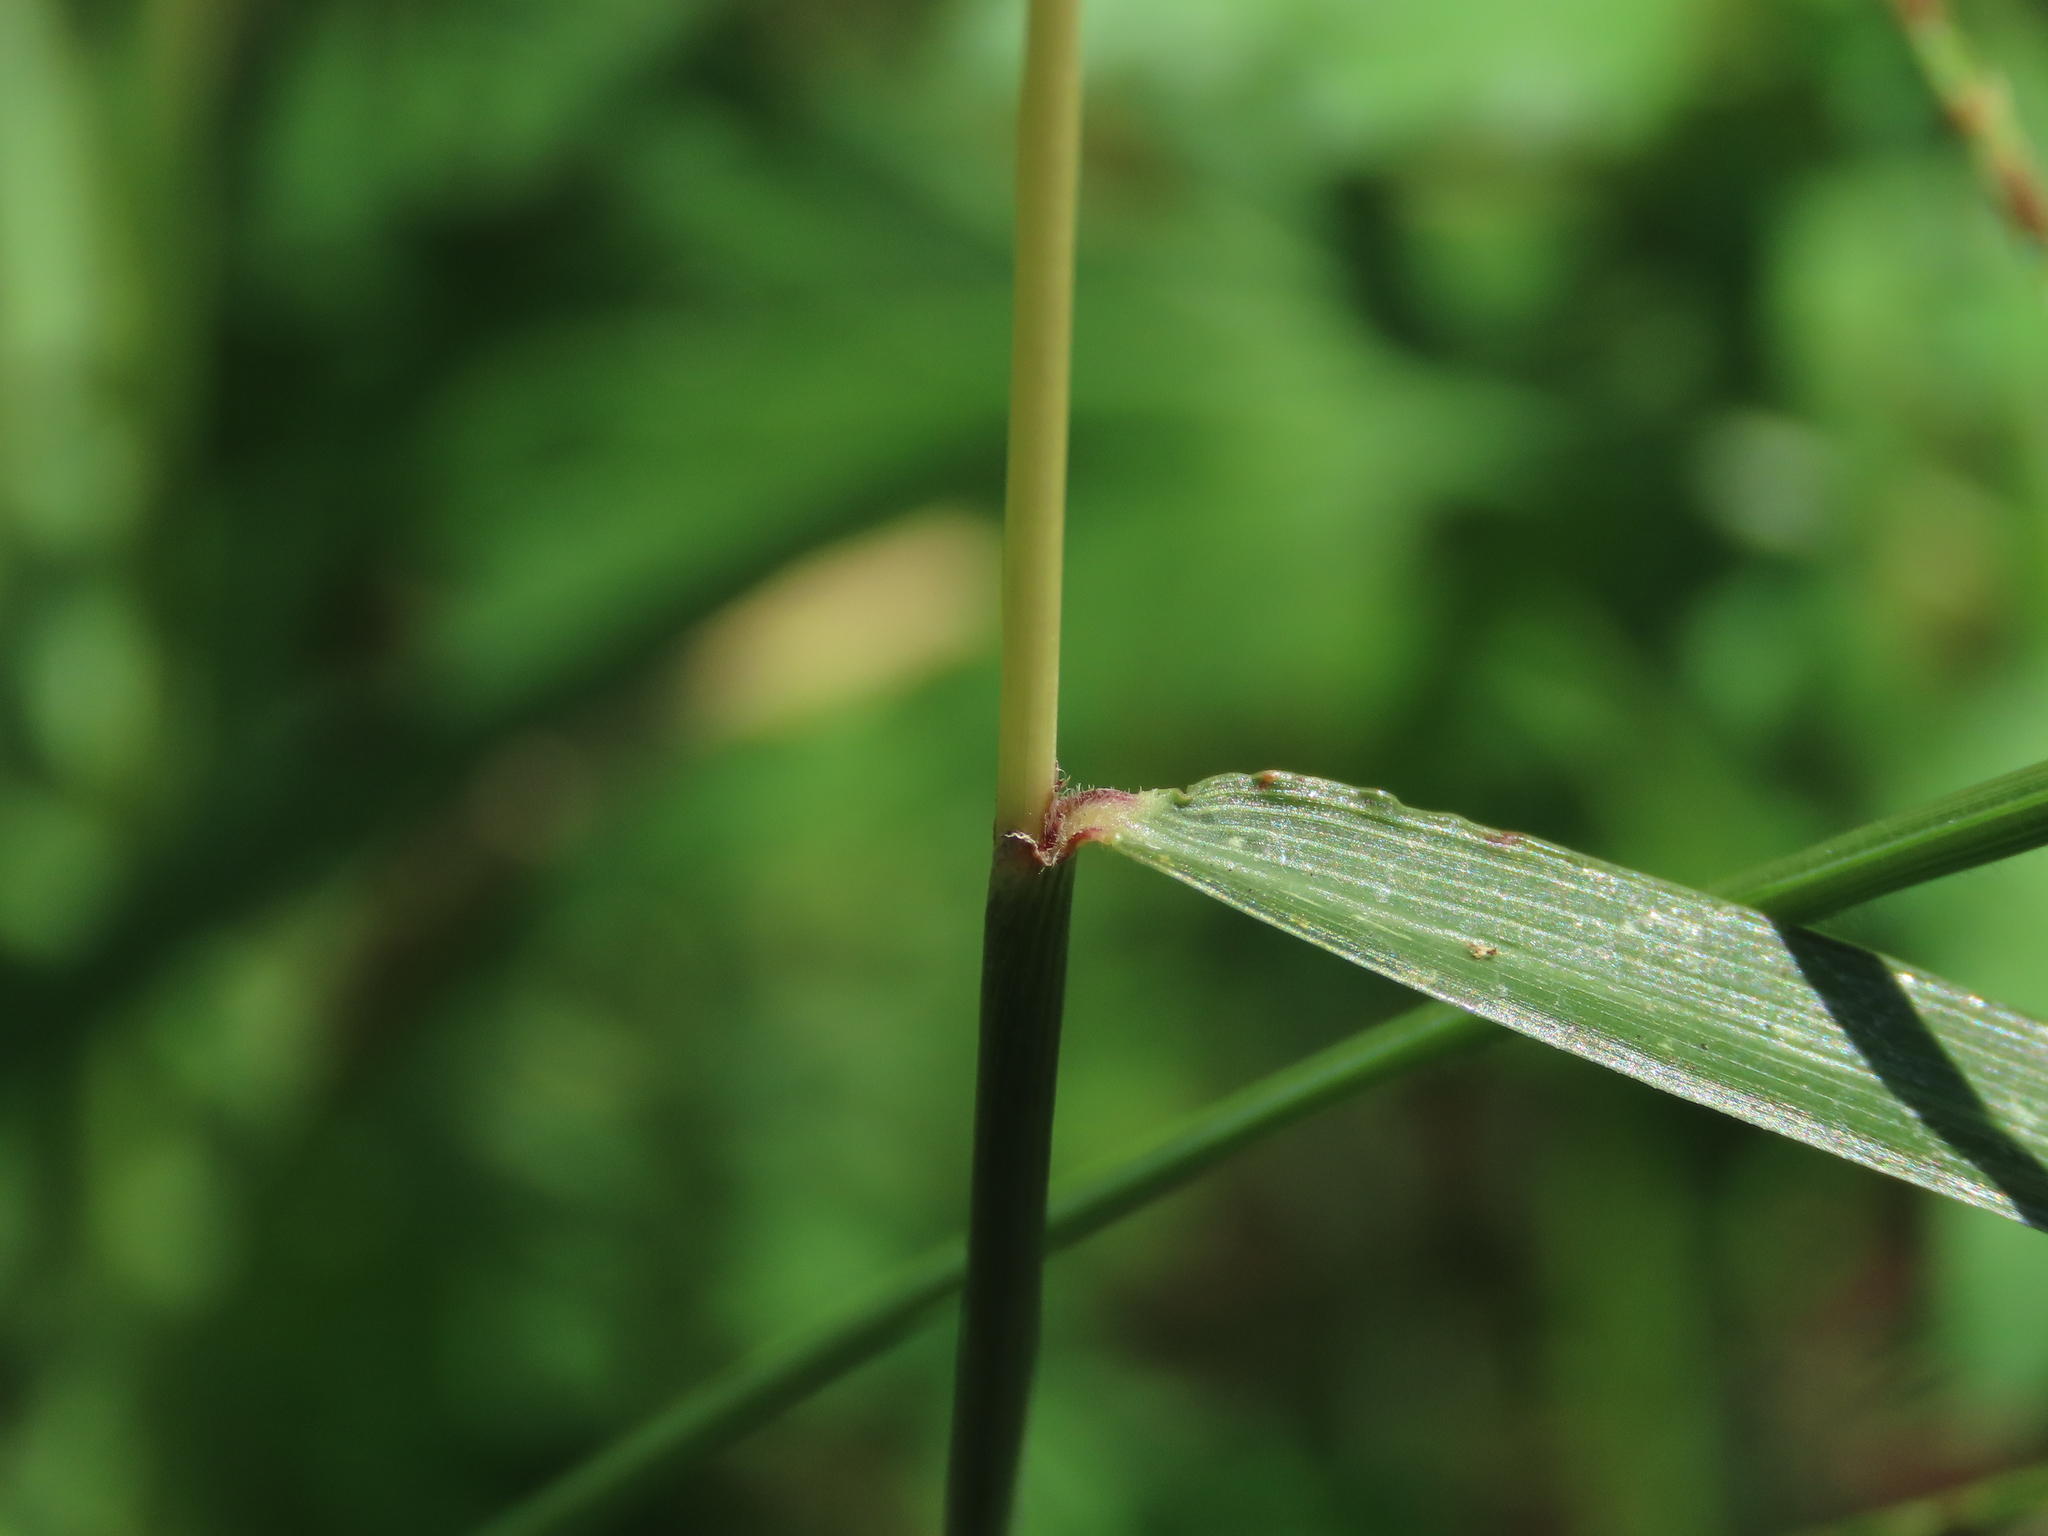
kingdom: Plantae
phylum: Tracheophyta
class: Liliopsida
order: Poales
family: Poaceae
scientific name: Poaceae
